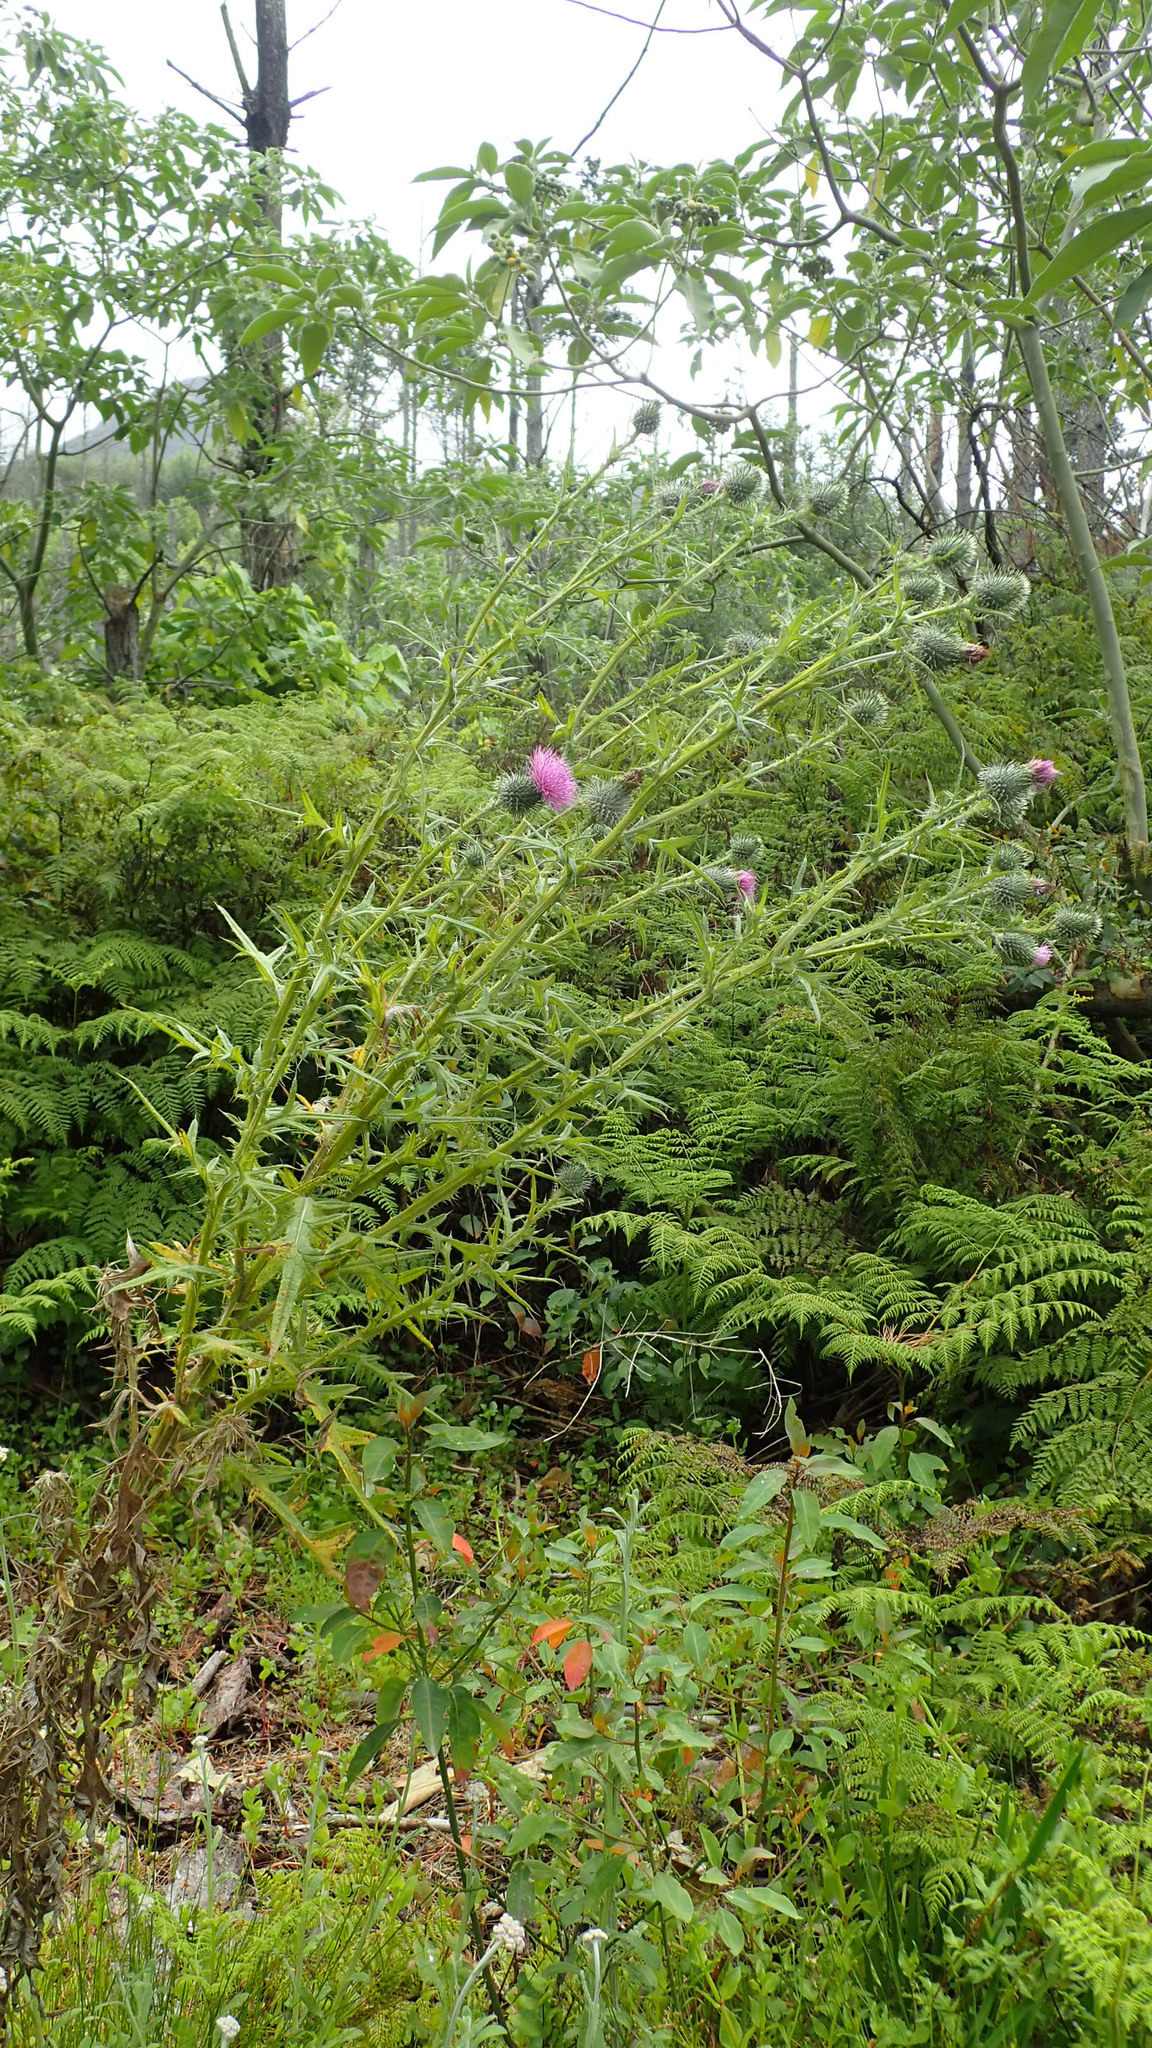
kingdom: Plantae
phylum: Tracheophyta
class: Magnoliopsida
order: Asterales
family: Asteraceae
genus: Cirsium
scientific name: Cirsium vulgare
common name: Bull thistle
